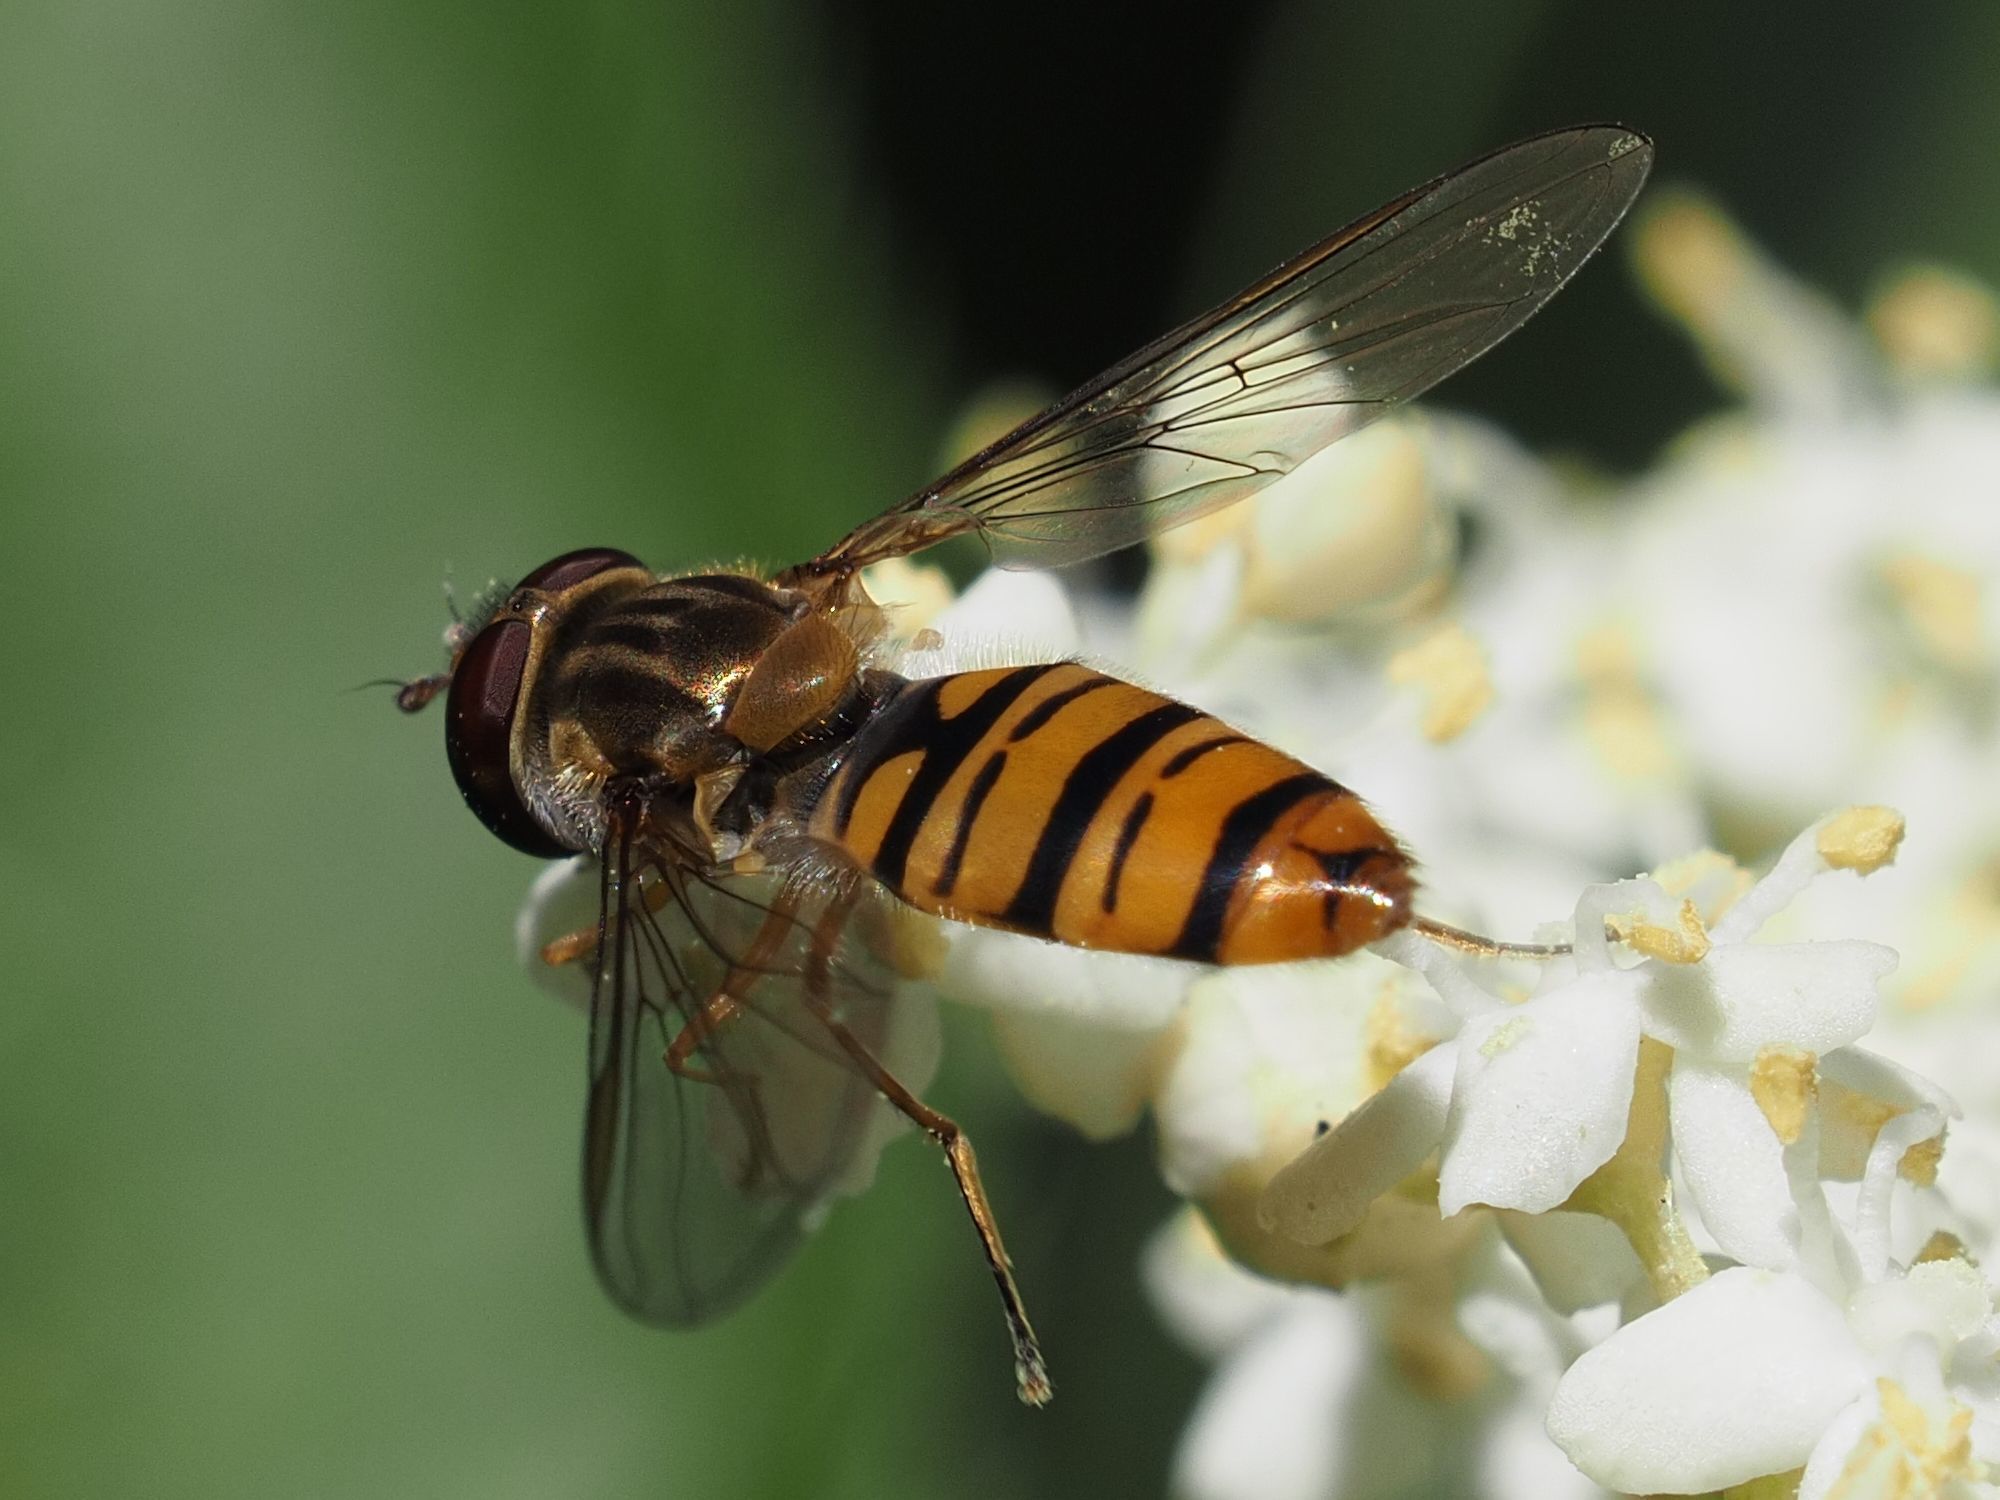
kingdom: Animalia
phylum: Arthropoda
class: Insecta
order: Diptera
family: Syrphidae
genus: Episyrphus
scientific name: Episyrphus balteatus
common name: Marmalade hoverfly
